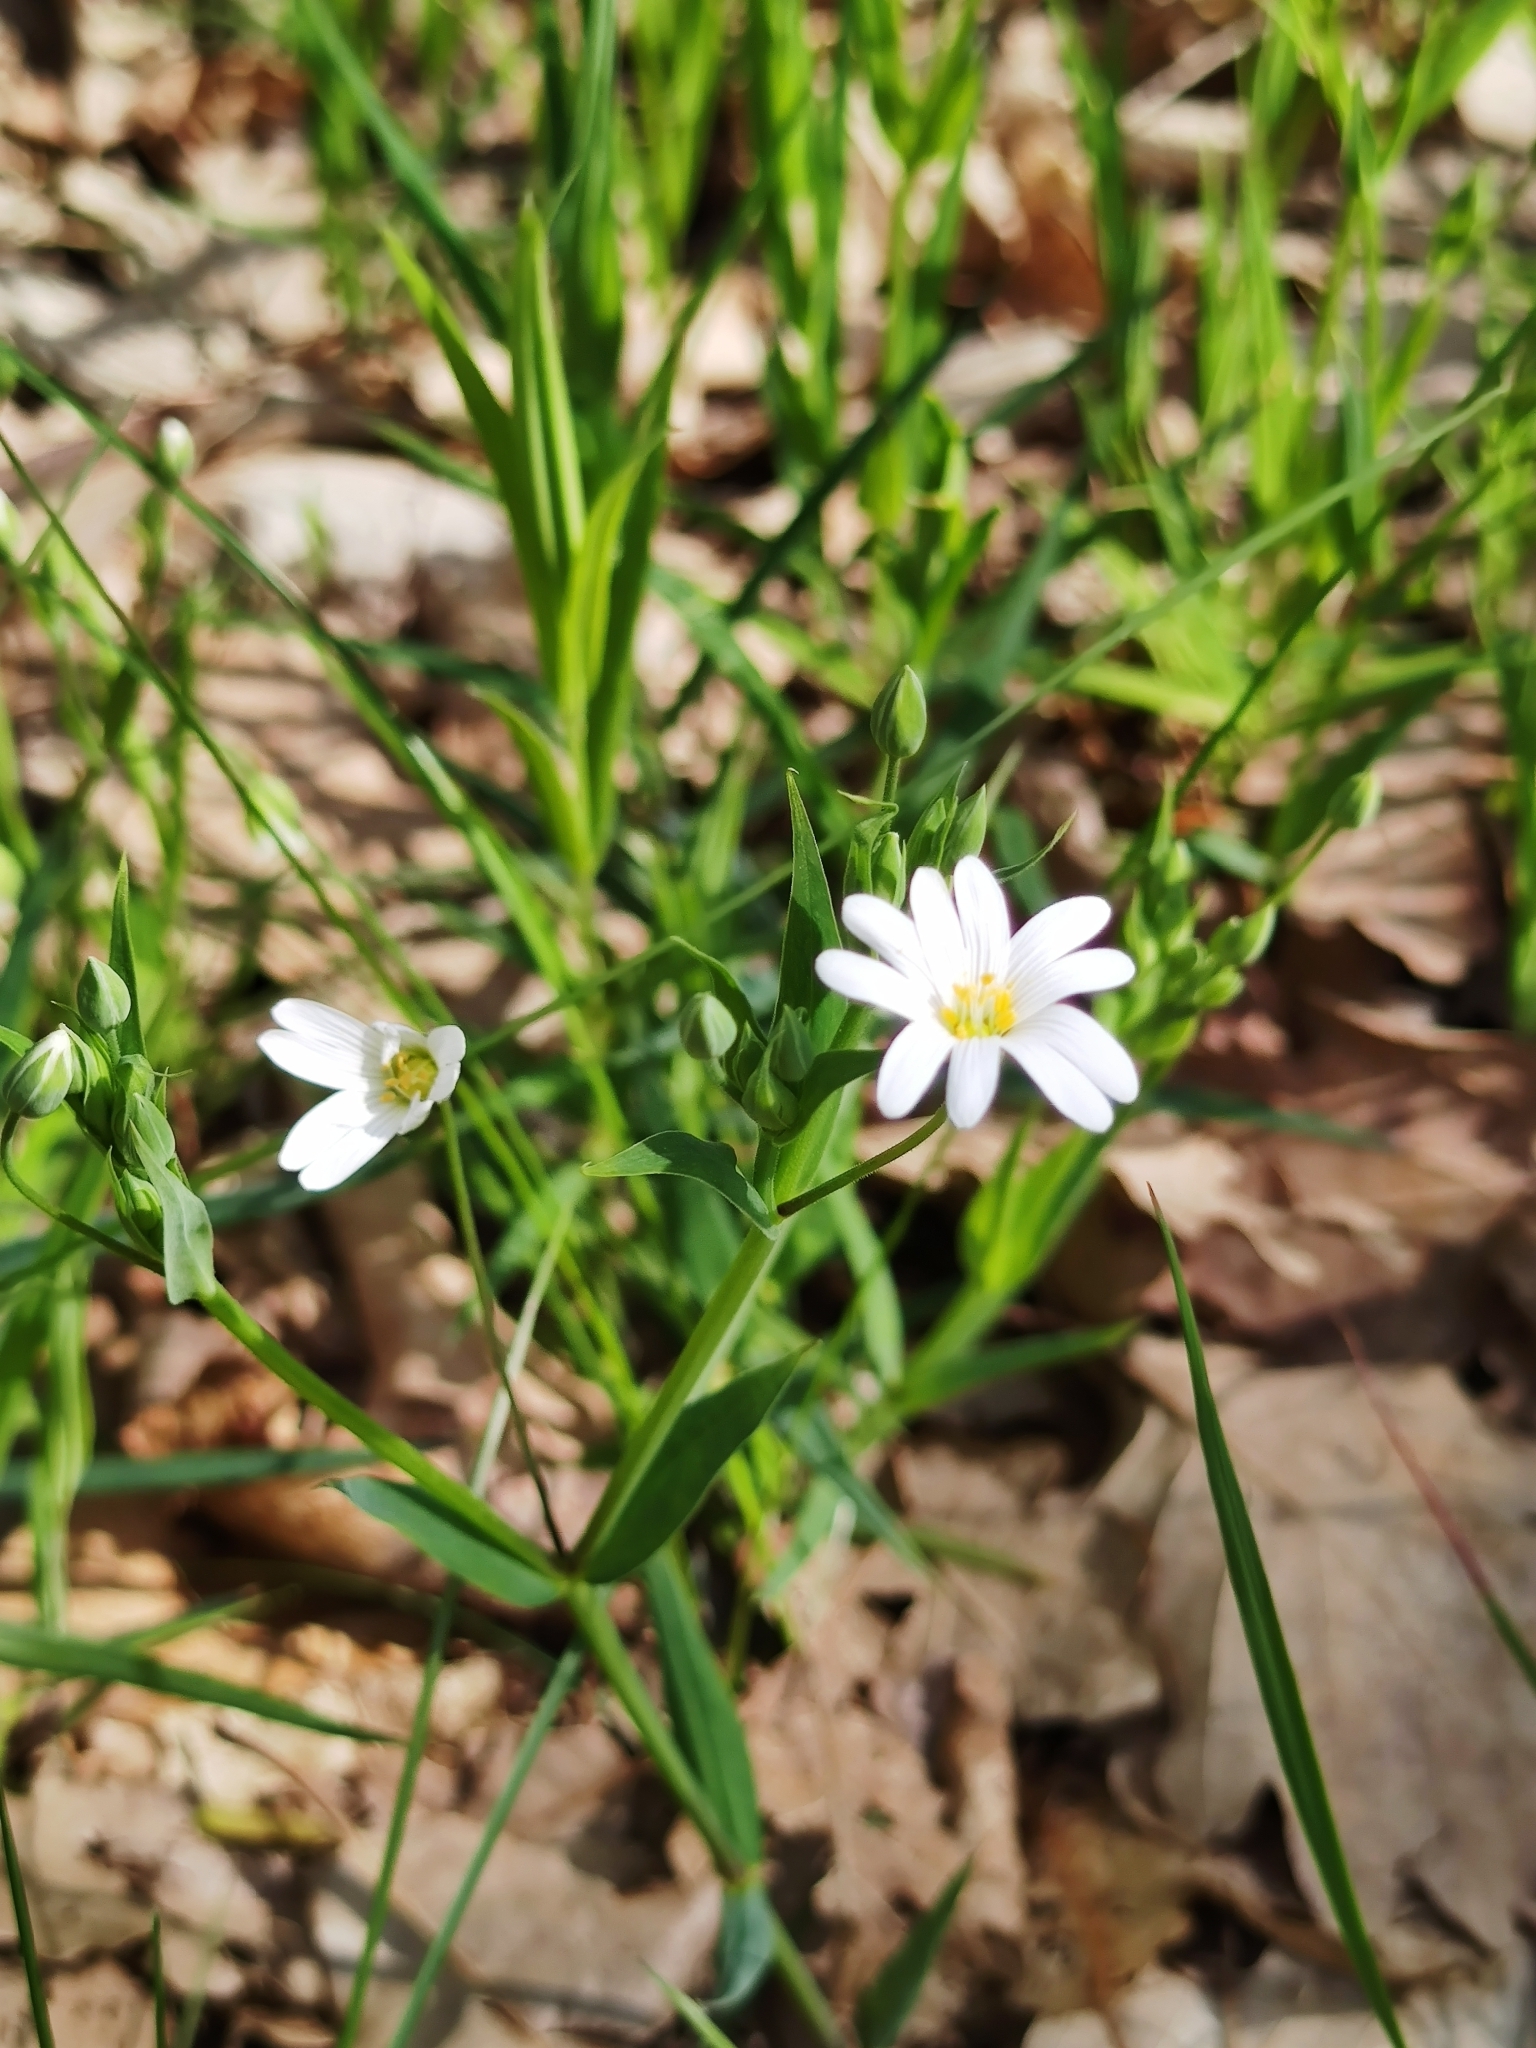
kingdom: Plantae
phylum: Tracheophyta
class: Magnoliopsida
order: Caryophyllales
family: Caryophyllaceae
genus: Rabelera
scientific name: Rabelera holostea
